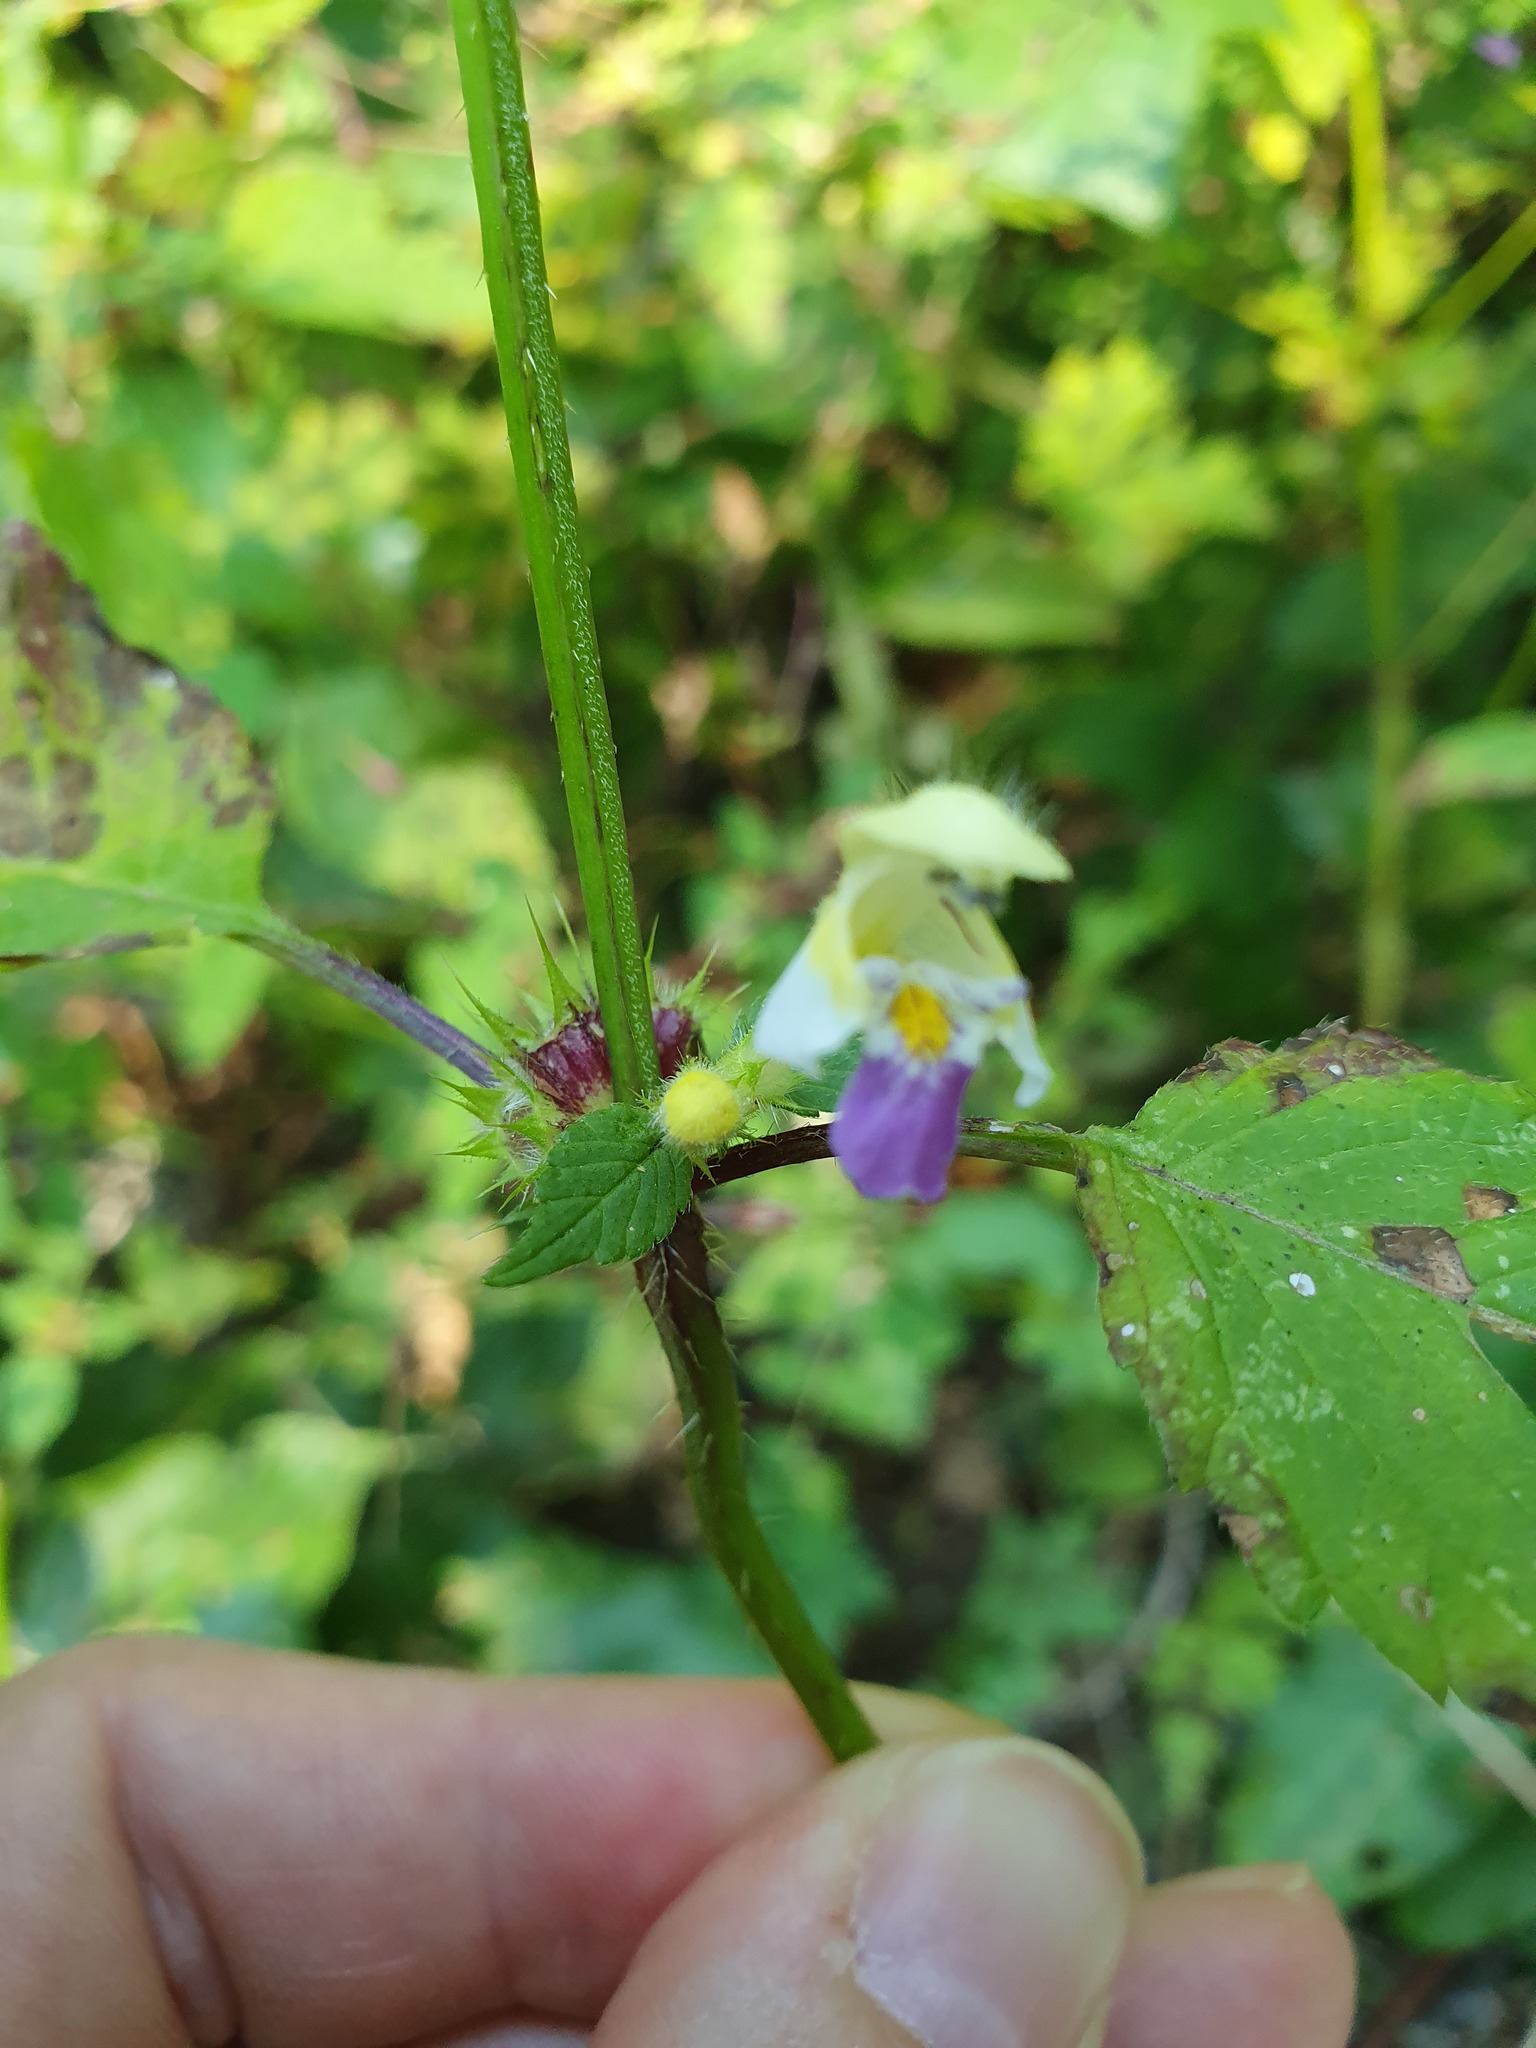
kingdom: Plantae
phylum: Tracheophyta
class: Magnoliopsida
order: Lamiales
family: Lamiaceae
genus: Galeopsis
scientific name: Galeopsis speciosa
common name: Large-flowered hemp-nettle
